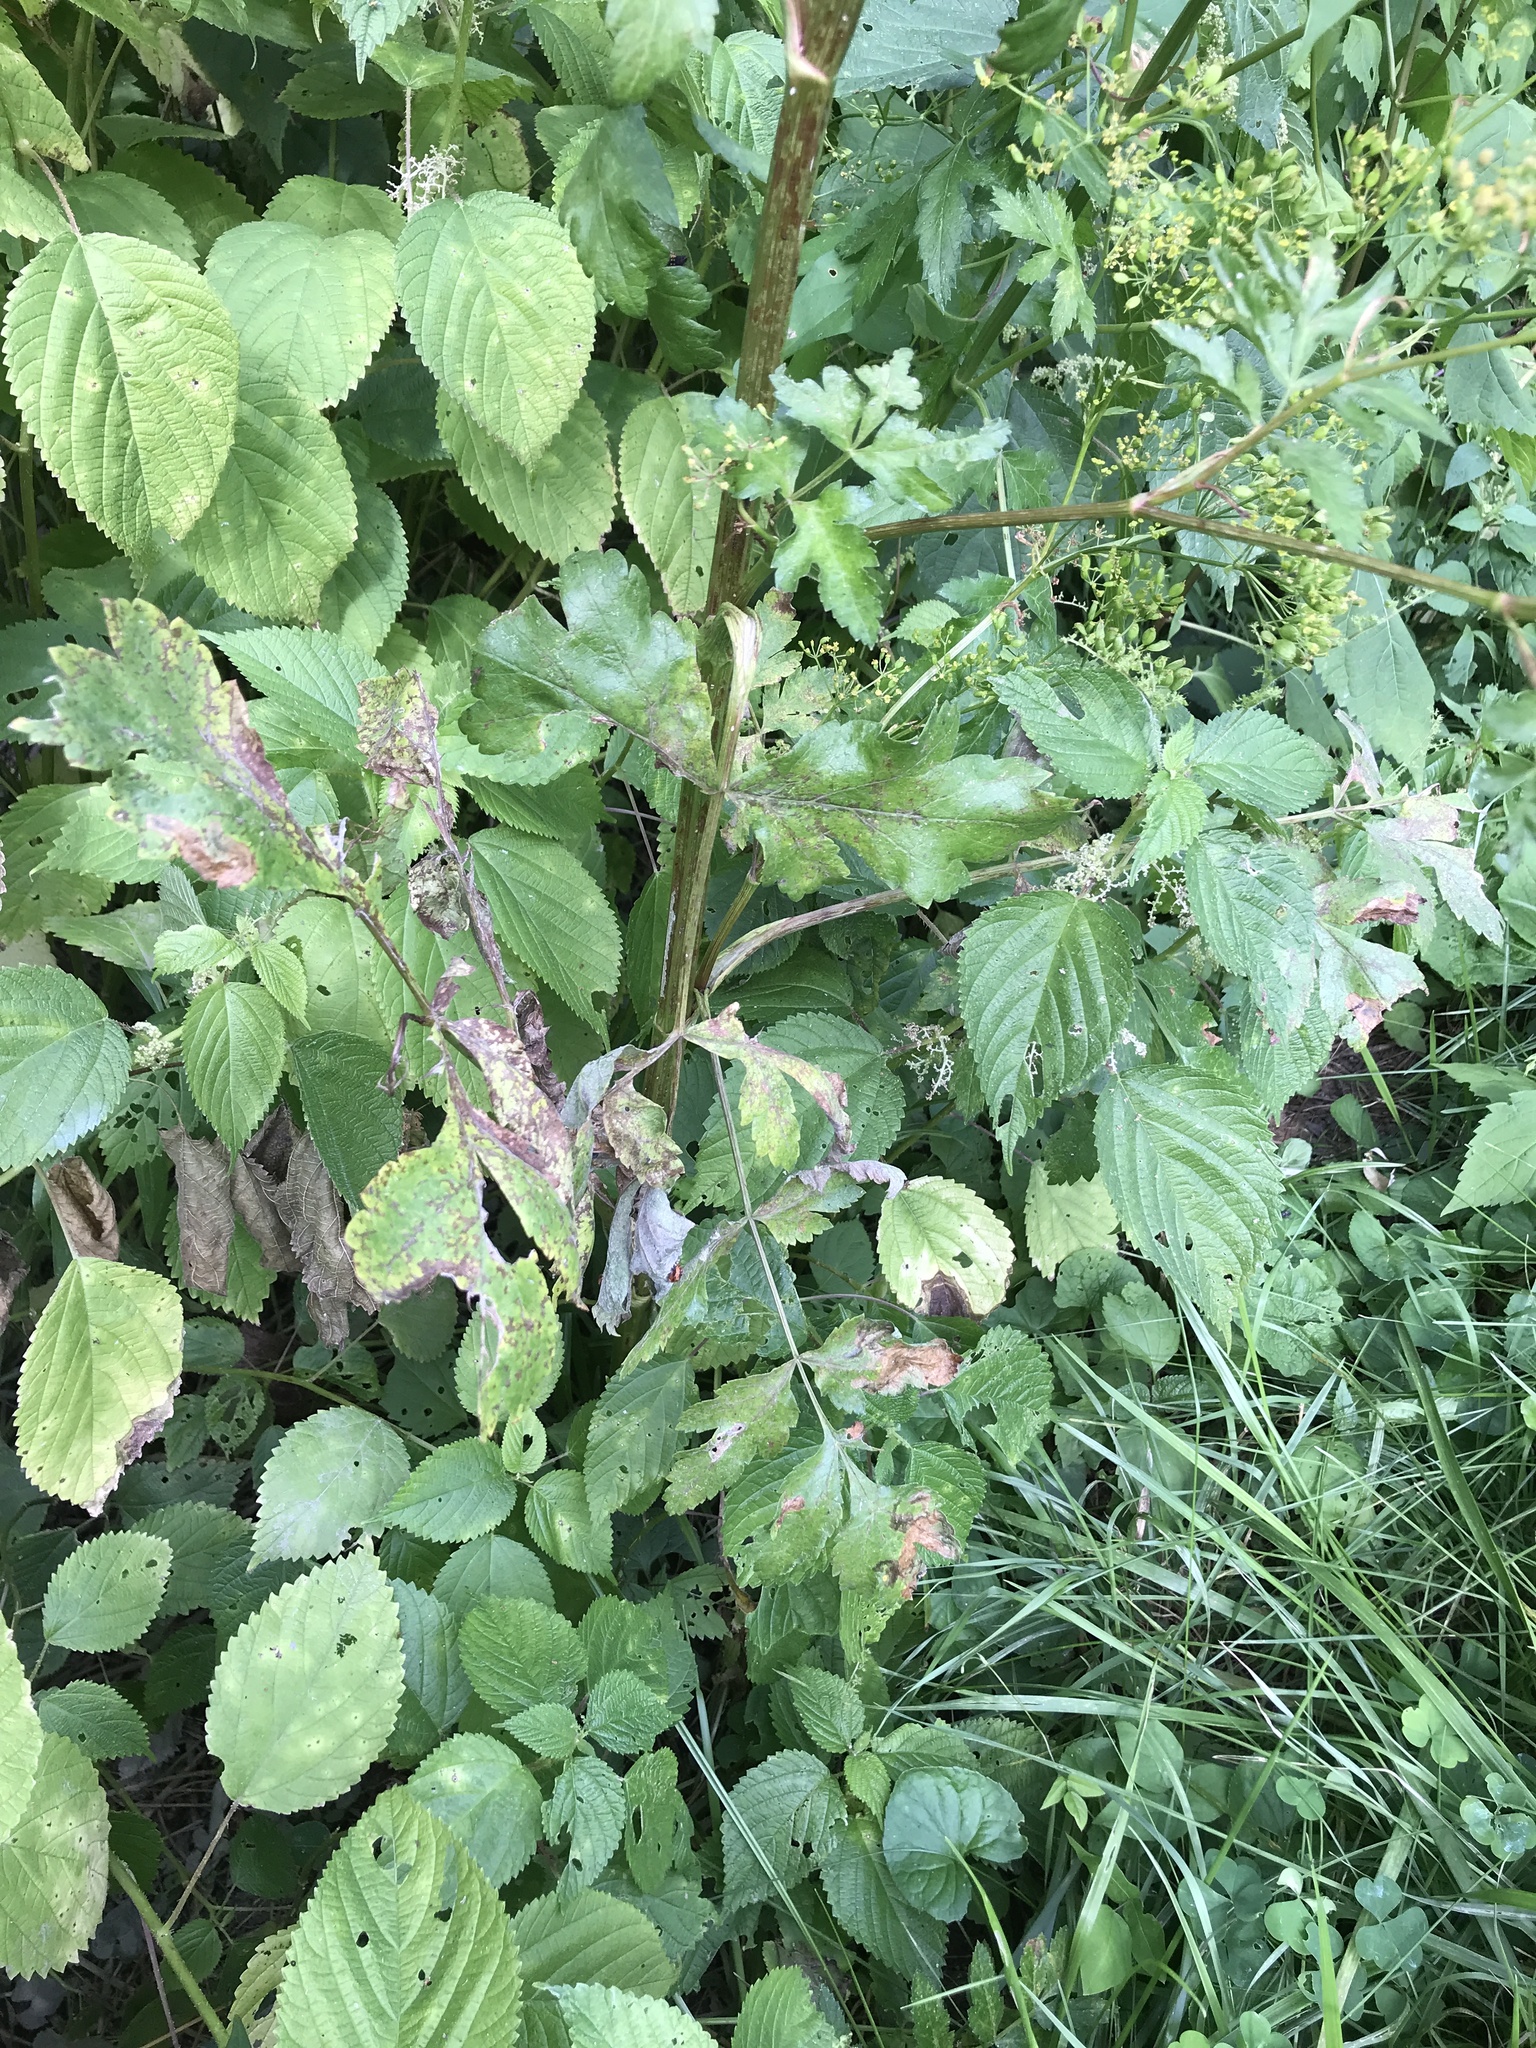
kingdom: Plantae
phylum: Tracheophyta
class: Magnoliopsida
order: Apiales
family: Apiaceae
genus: Pastinaca
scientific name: Pastinaca sativa
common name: Wild parsnip
